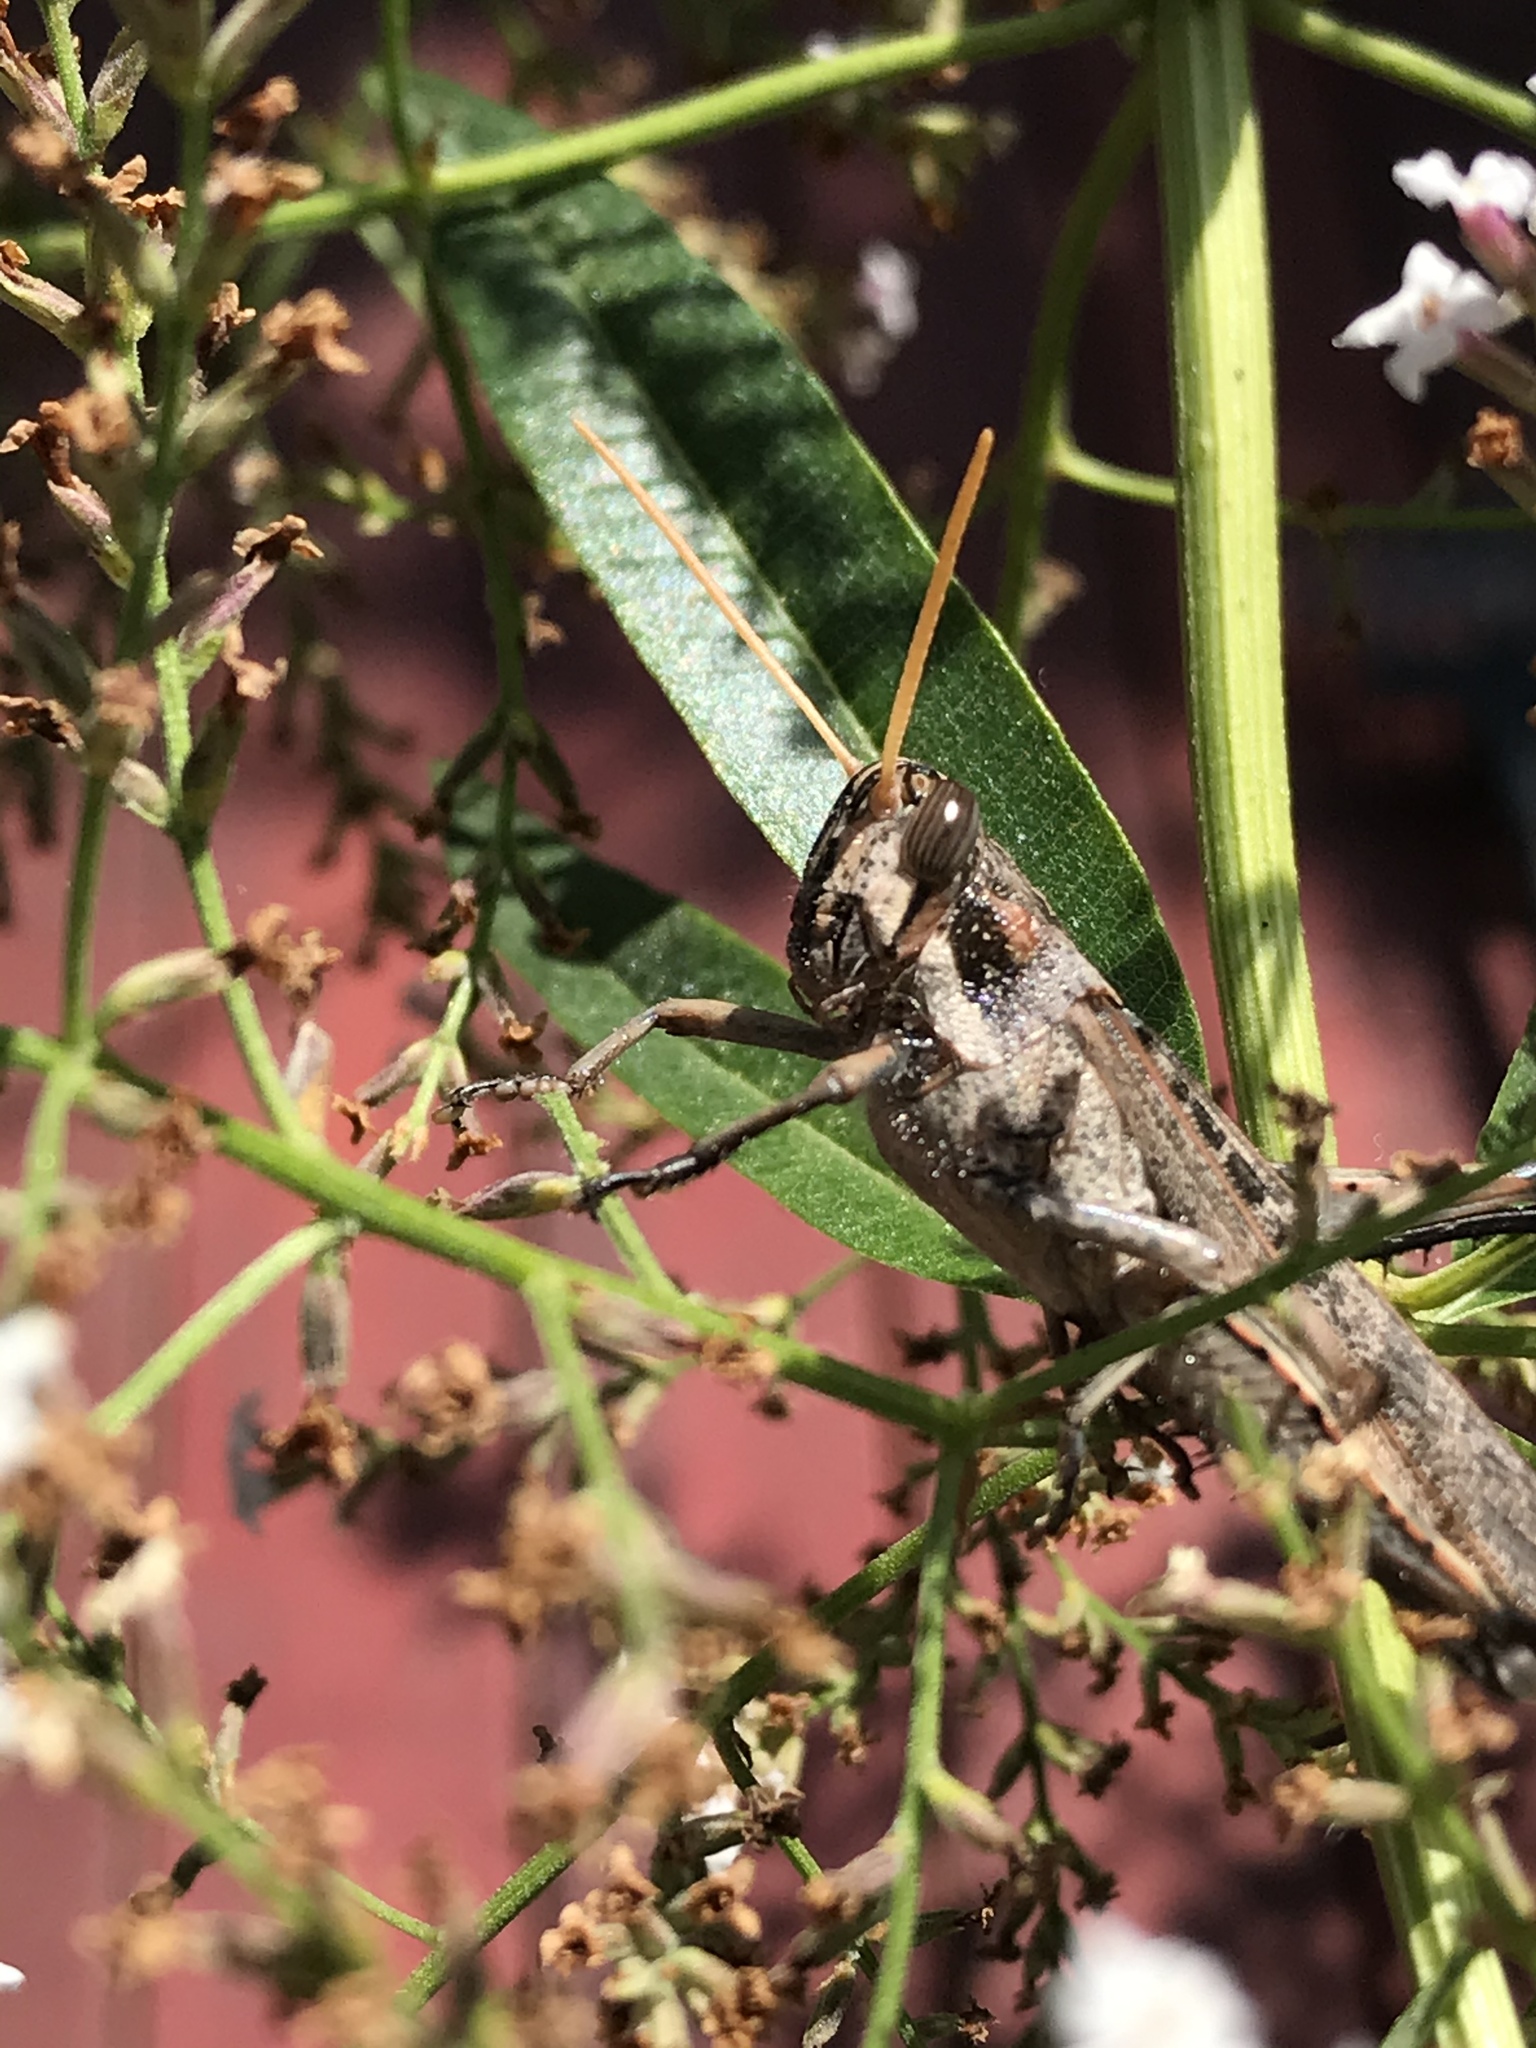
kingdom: Animalia
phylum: Arthropoda
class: Insecta
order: Orthoptera
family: Acrididae
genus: Schistocerca
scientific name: Schistocerca nitens
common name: Vagrant grasshopper
